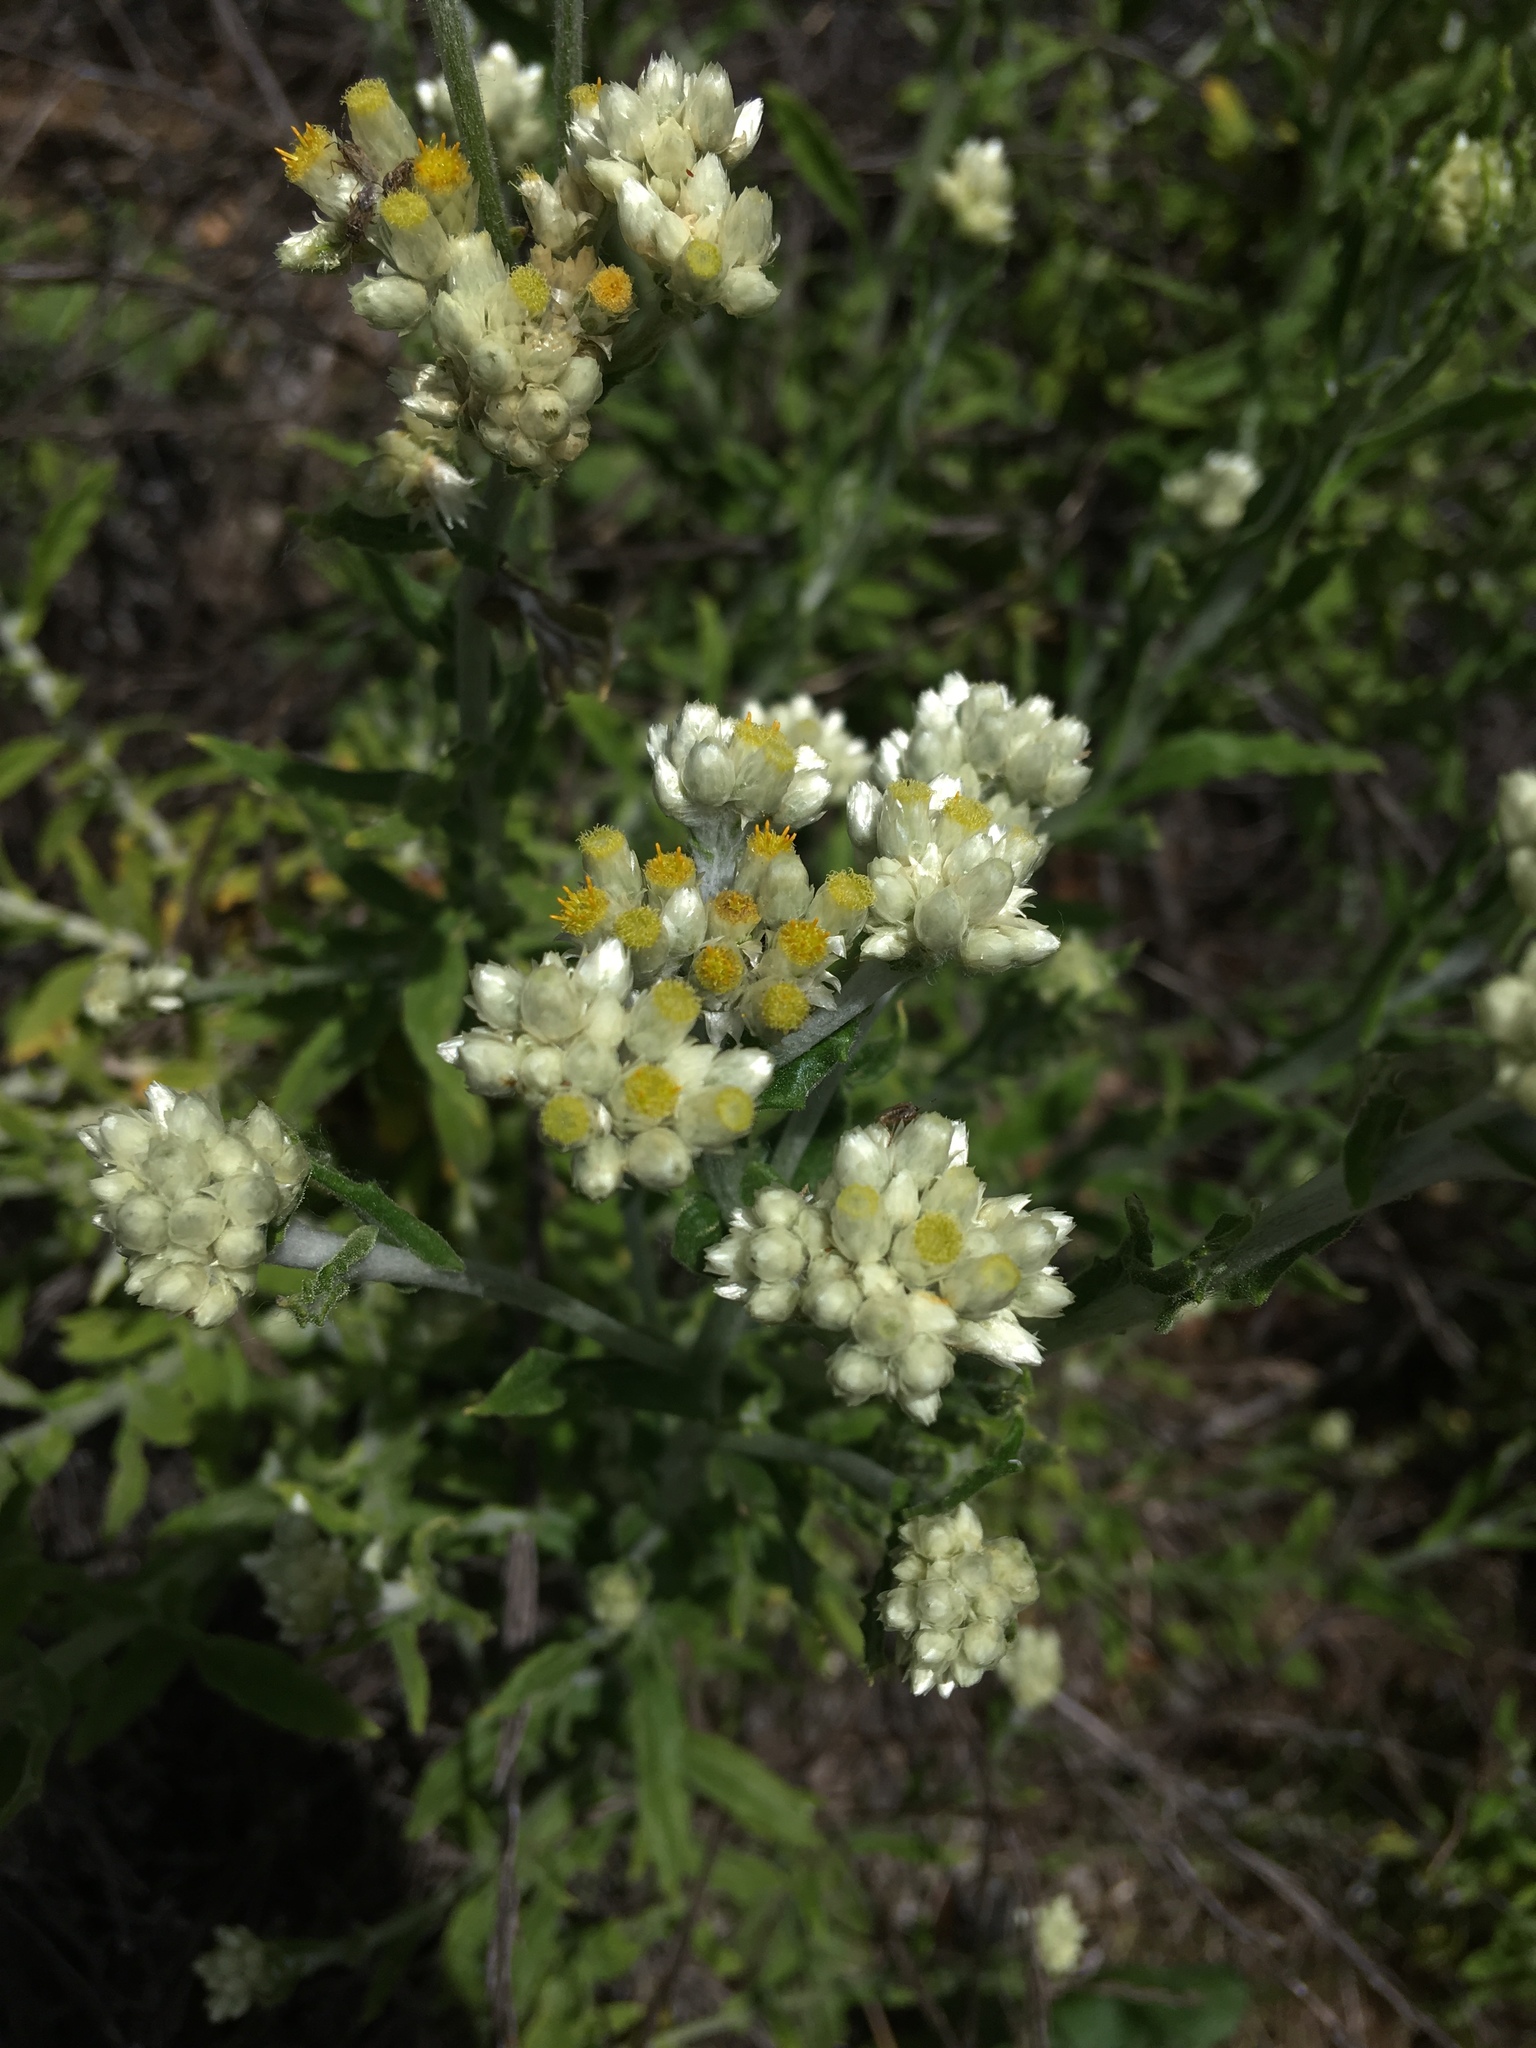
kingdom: Plantae
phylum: Tracheophyta
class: Magnoliopsida
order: Asterales
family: Asteraceae
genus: Pseudognaphalium
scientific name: Pseudognaphalium biolettii
